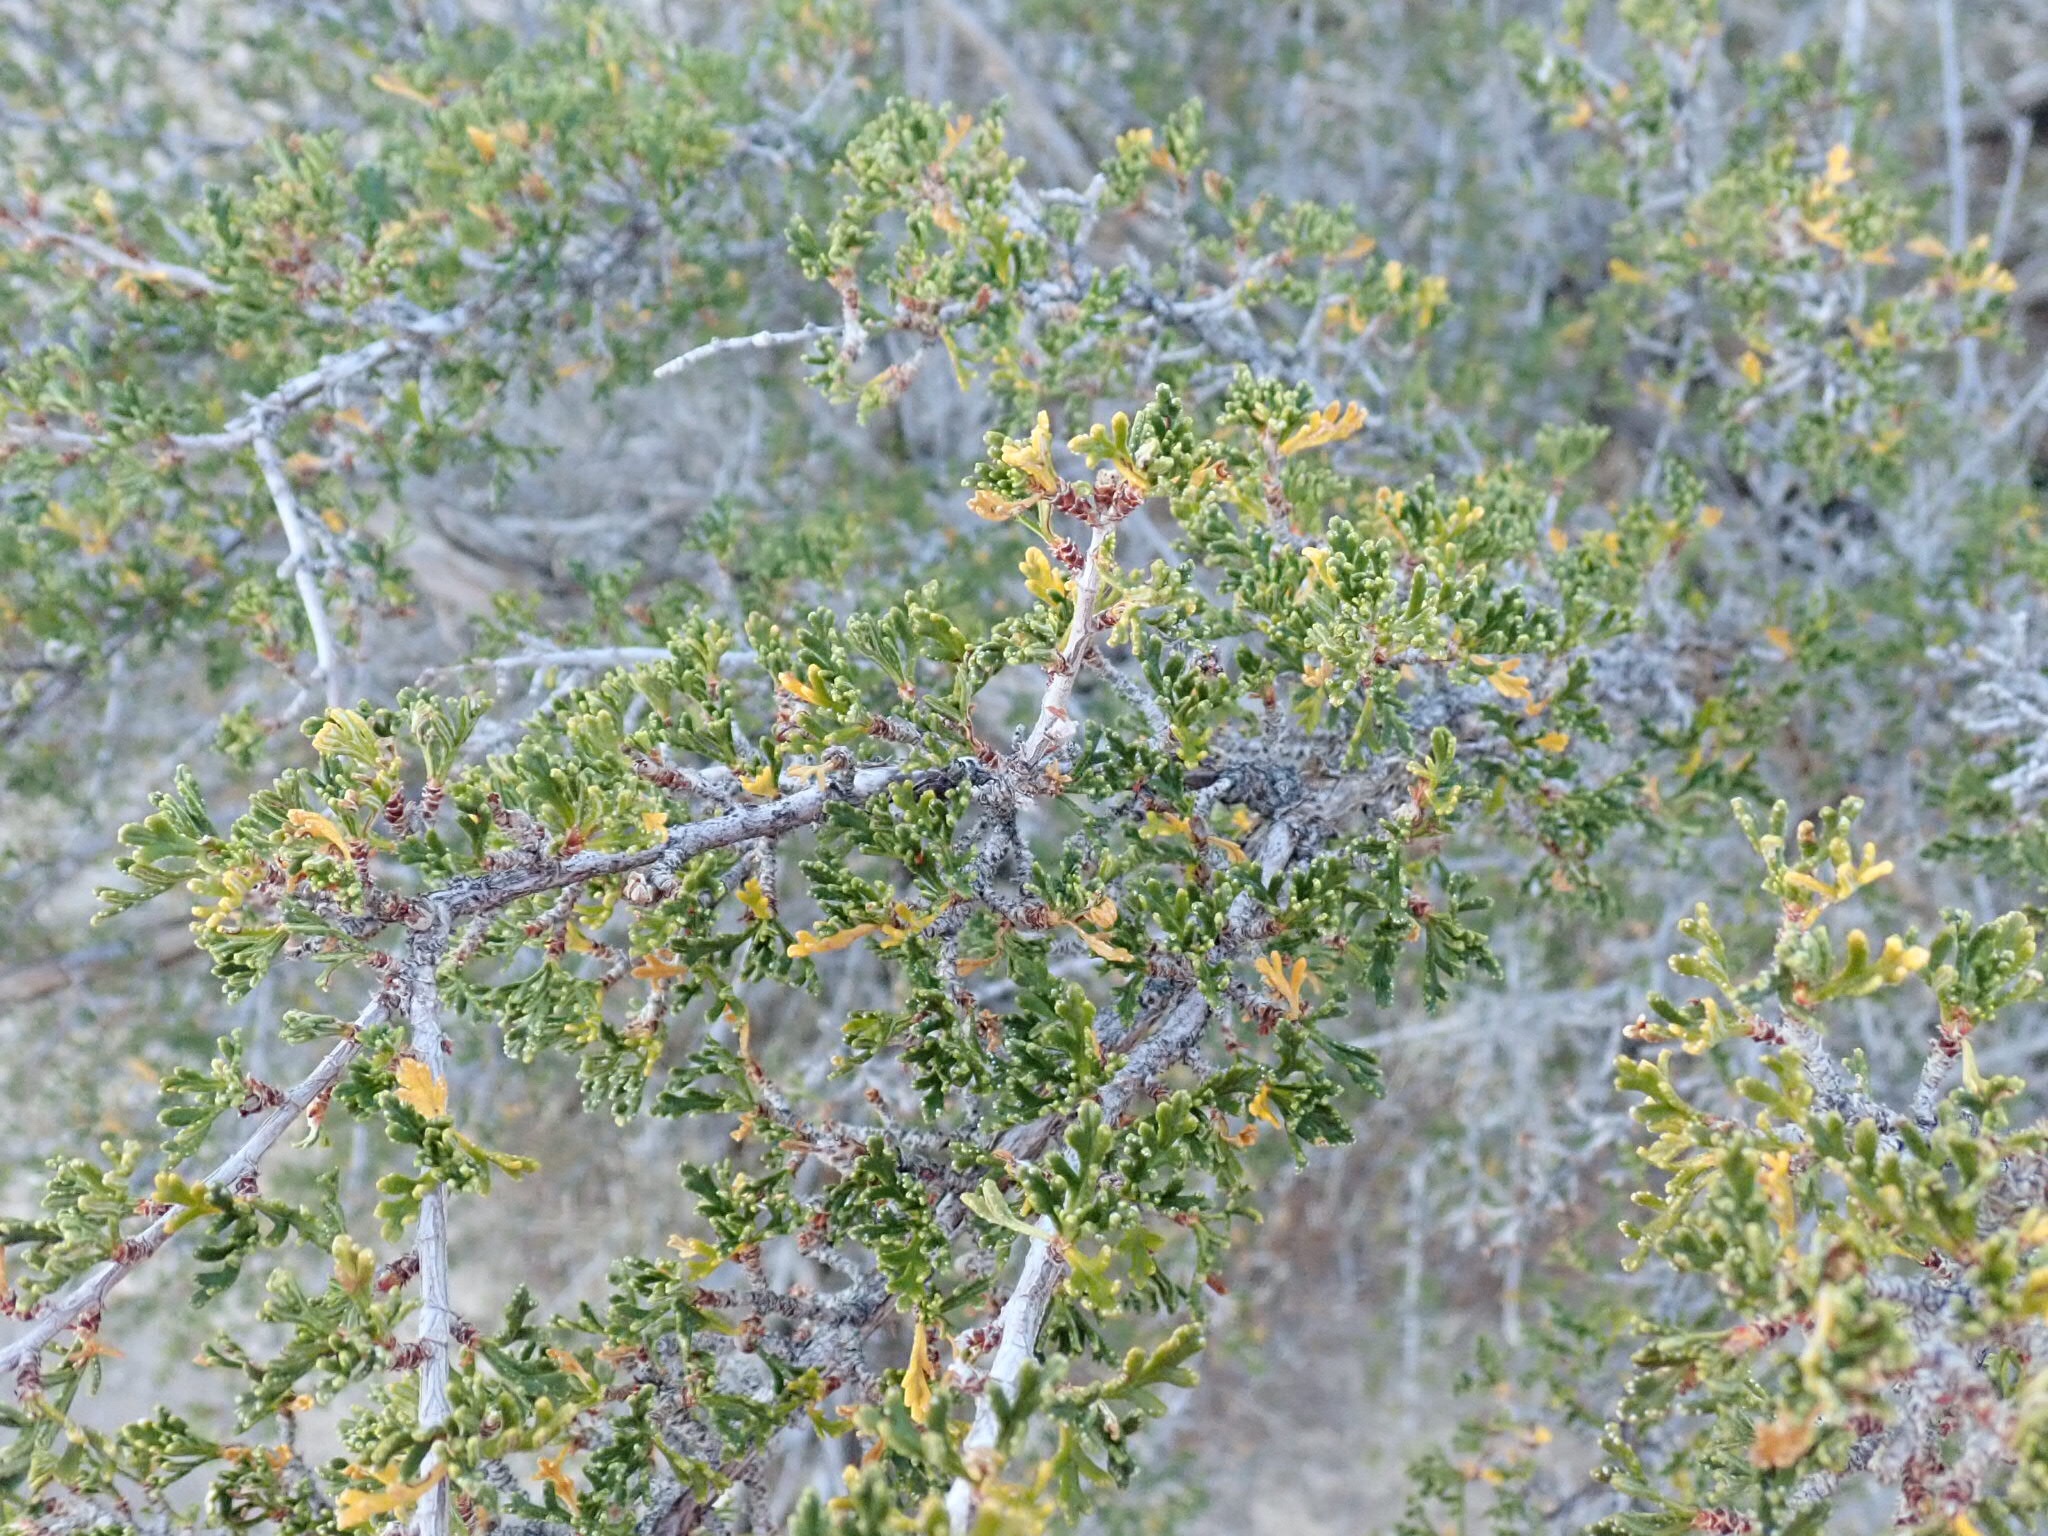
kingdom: Plantae
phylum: Tracheophyta
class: Magnoliopsida
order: Rosales
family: Rosaceae
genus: Purshia
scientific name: Purshia stansburiana
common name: Stansbury's cliffrose
